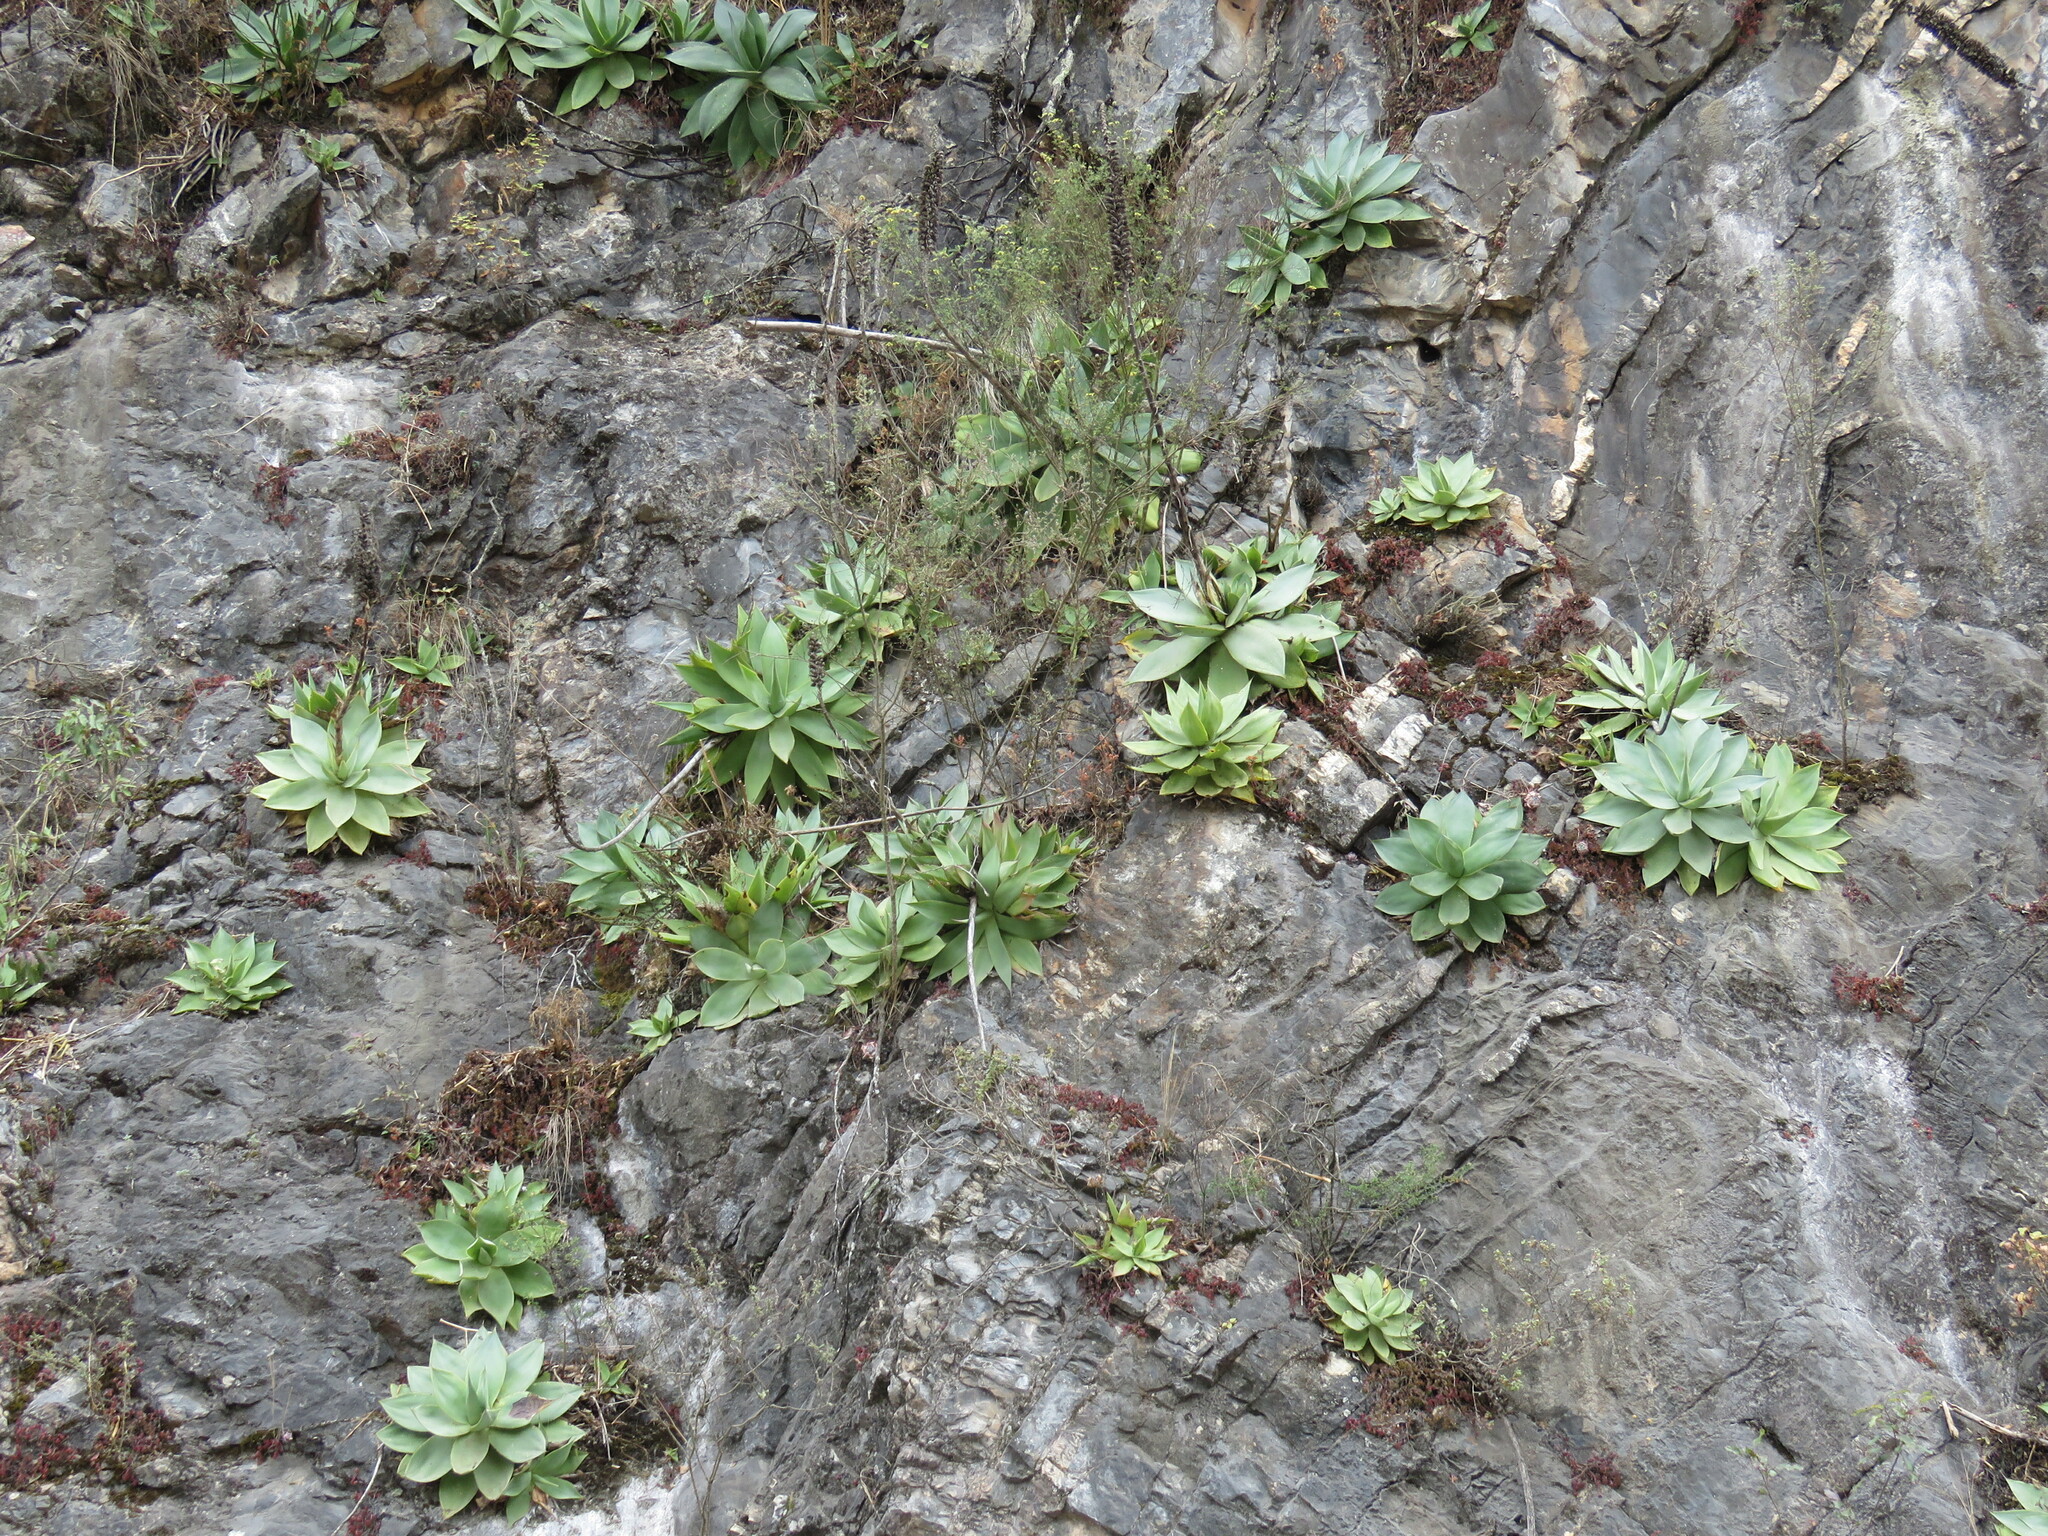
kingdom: Plantae
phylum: Tracheophyta
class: Liliopsida
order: Asparagales
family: Asparagaceae
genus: Agave
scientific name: Agave mitis
